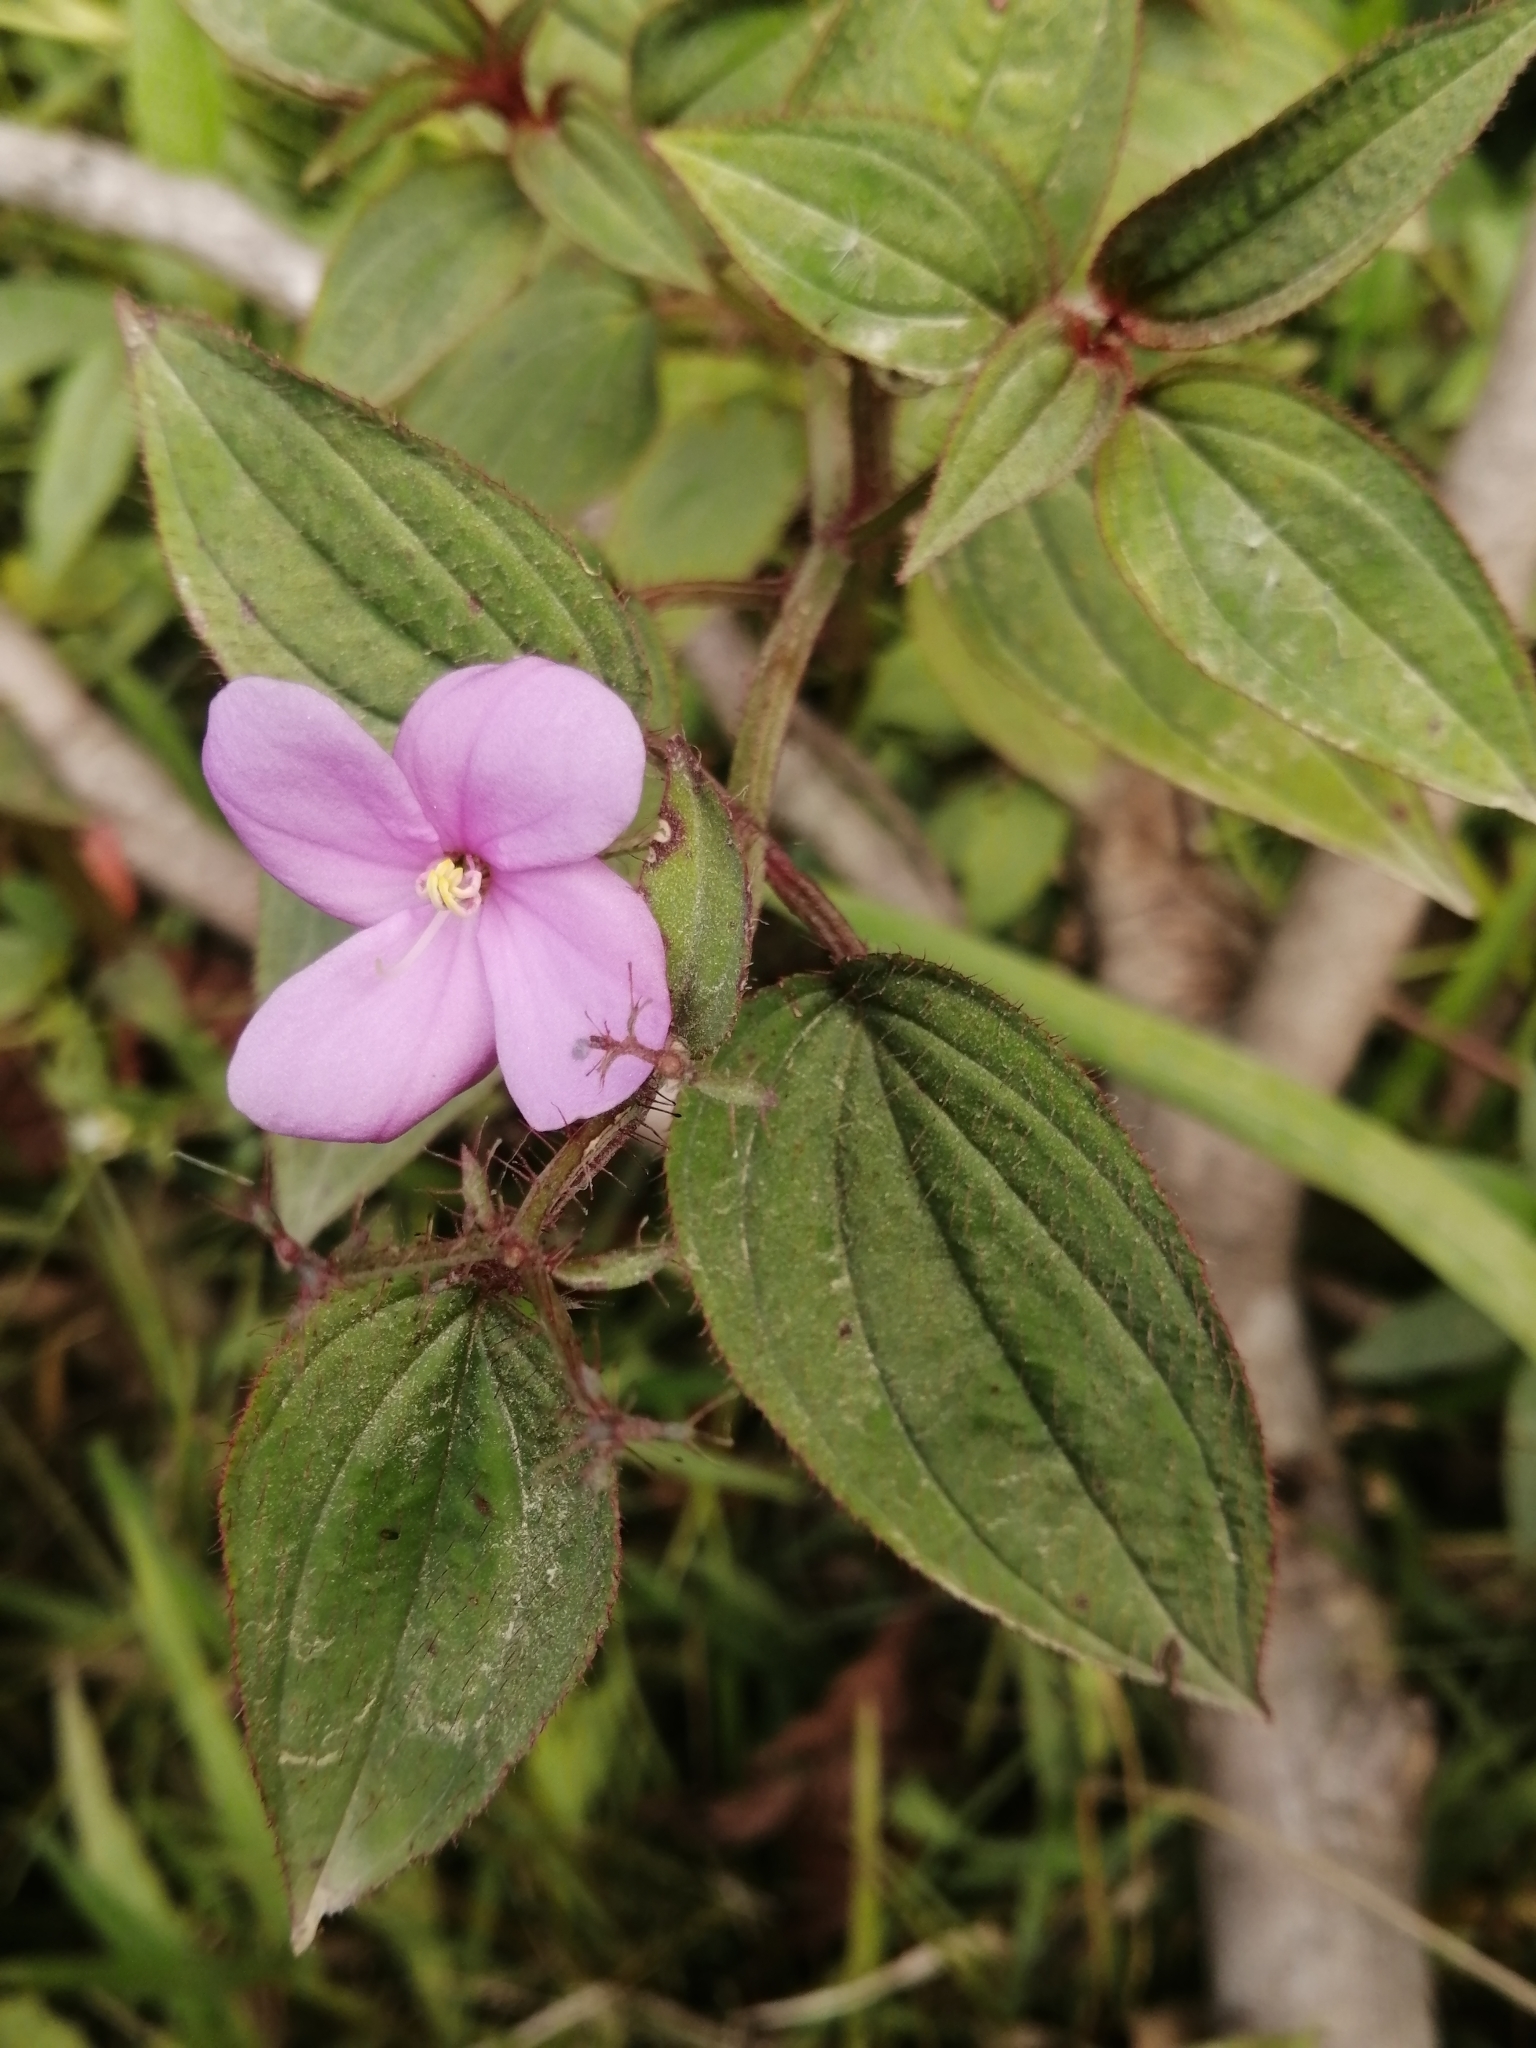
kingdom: Plantae
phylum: Tracheophyta
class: Magnoliopsida
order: Myrtales
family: Melastomataceae
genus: Arthrostemma
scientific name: Arthrostemma ciliatum
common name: Everblooming eavender
